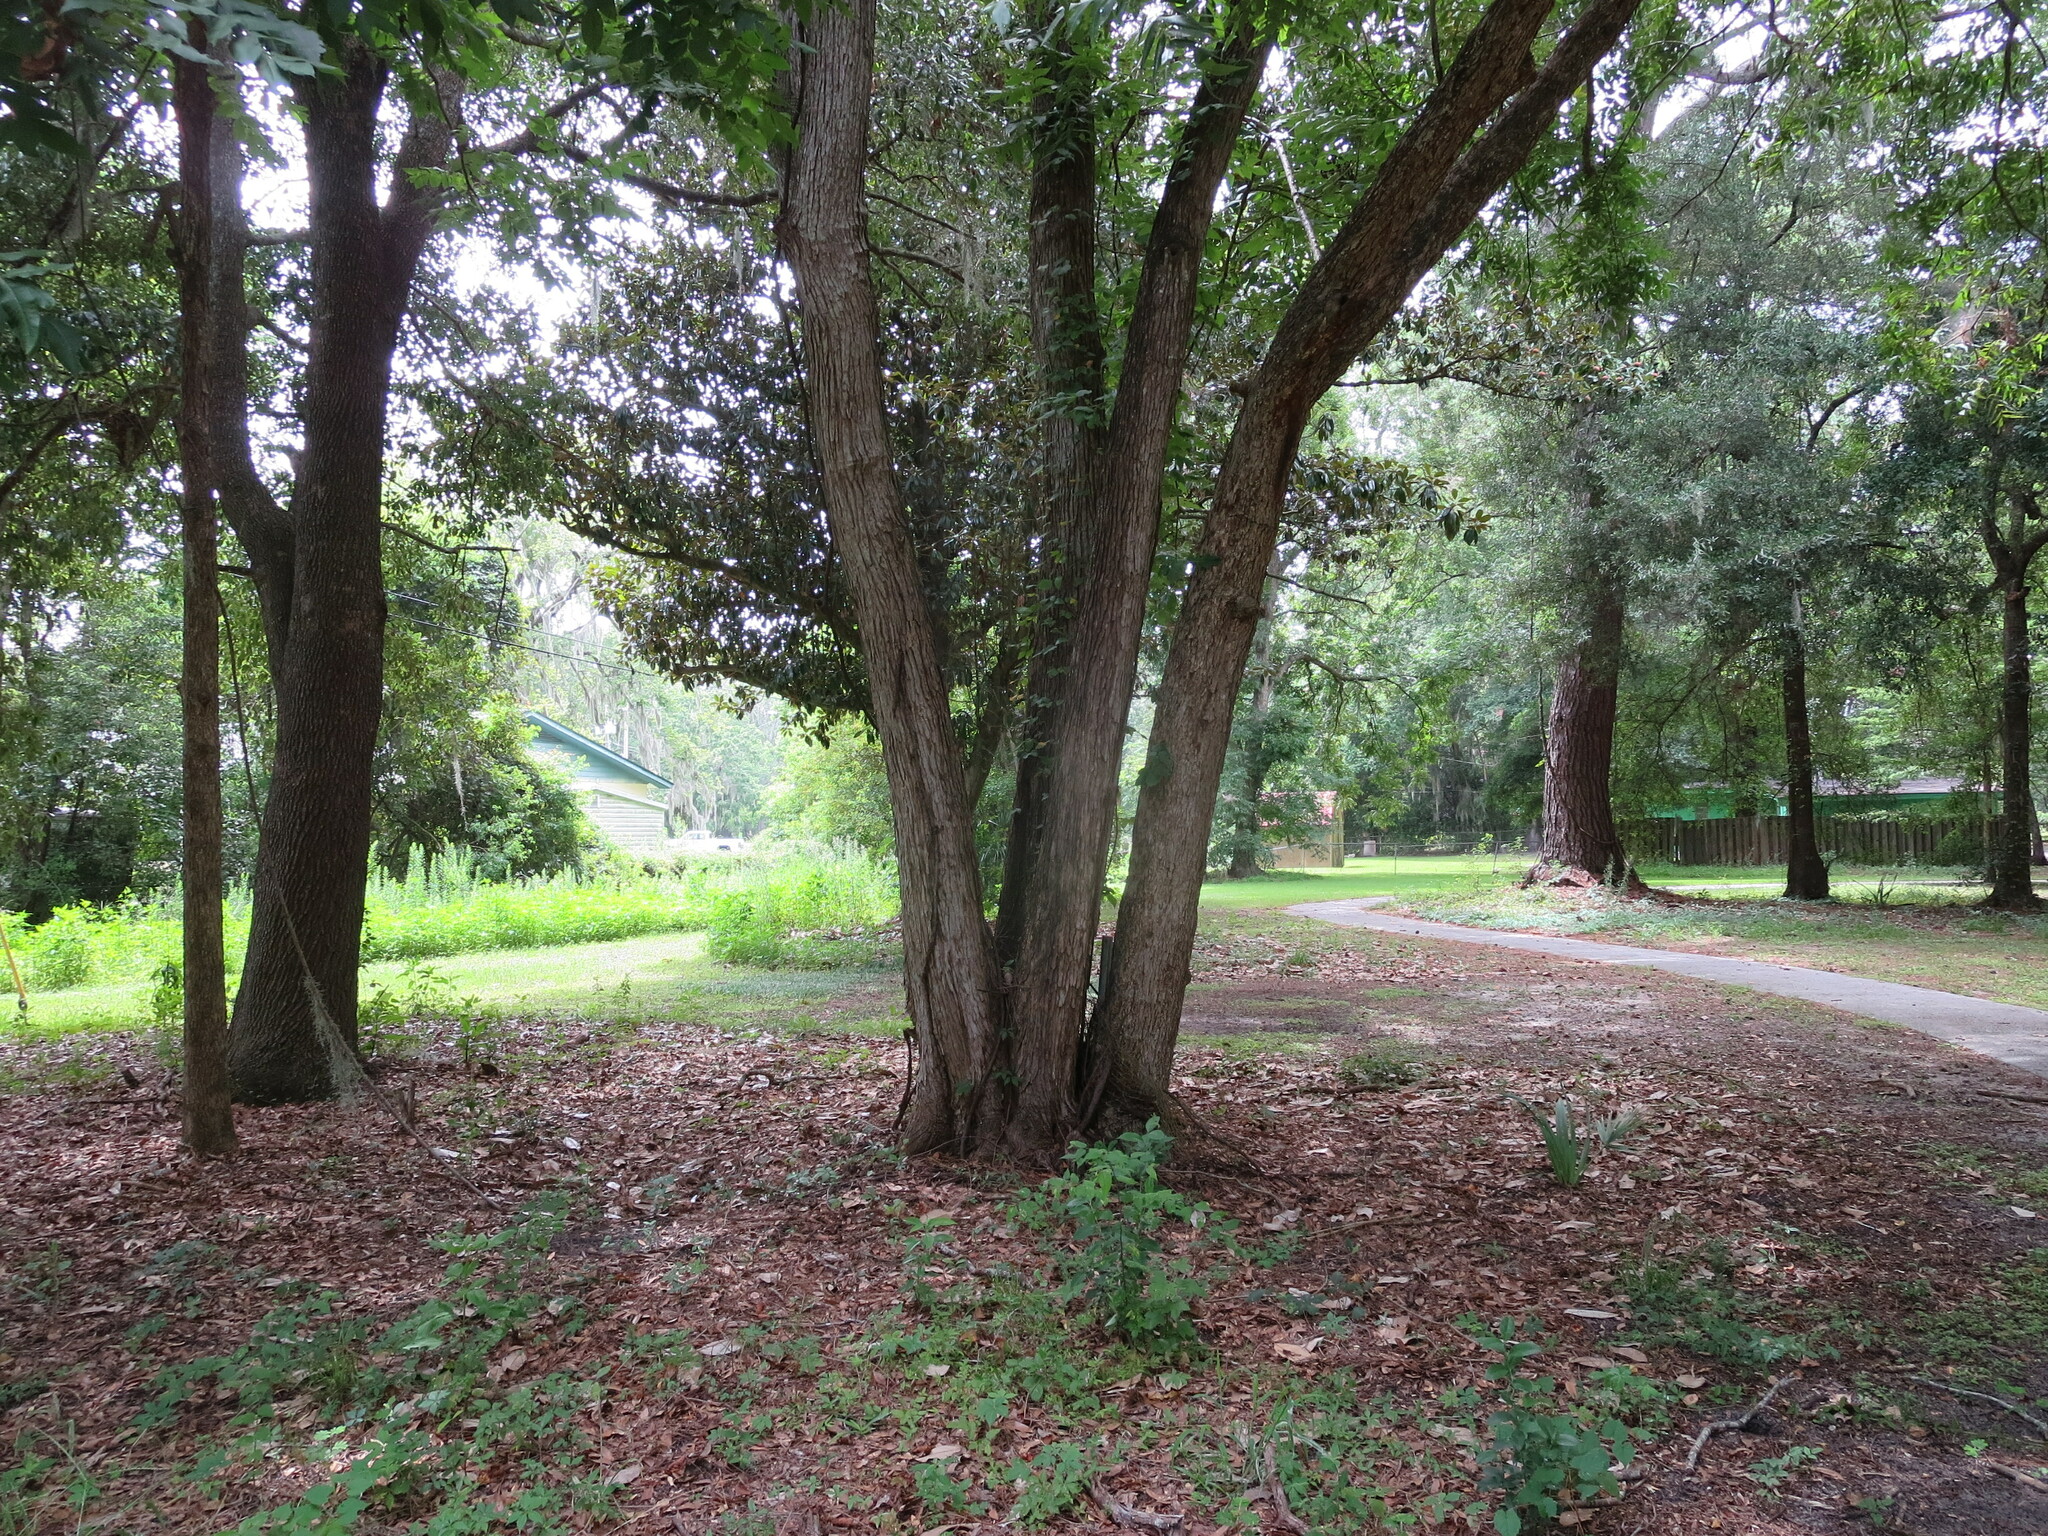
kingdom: Plantae
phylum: Tracheophyta
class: Magnoliopsida
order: Fagales
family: Juglandaceae
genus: Carya
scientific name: Carya illinoinensis
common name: Pecan
